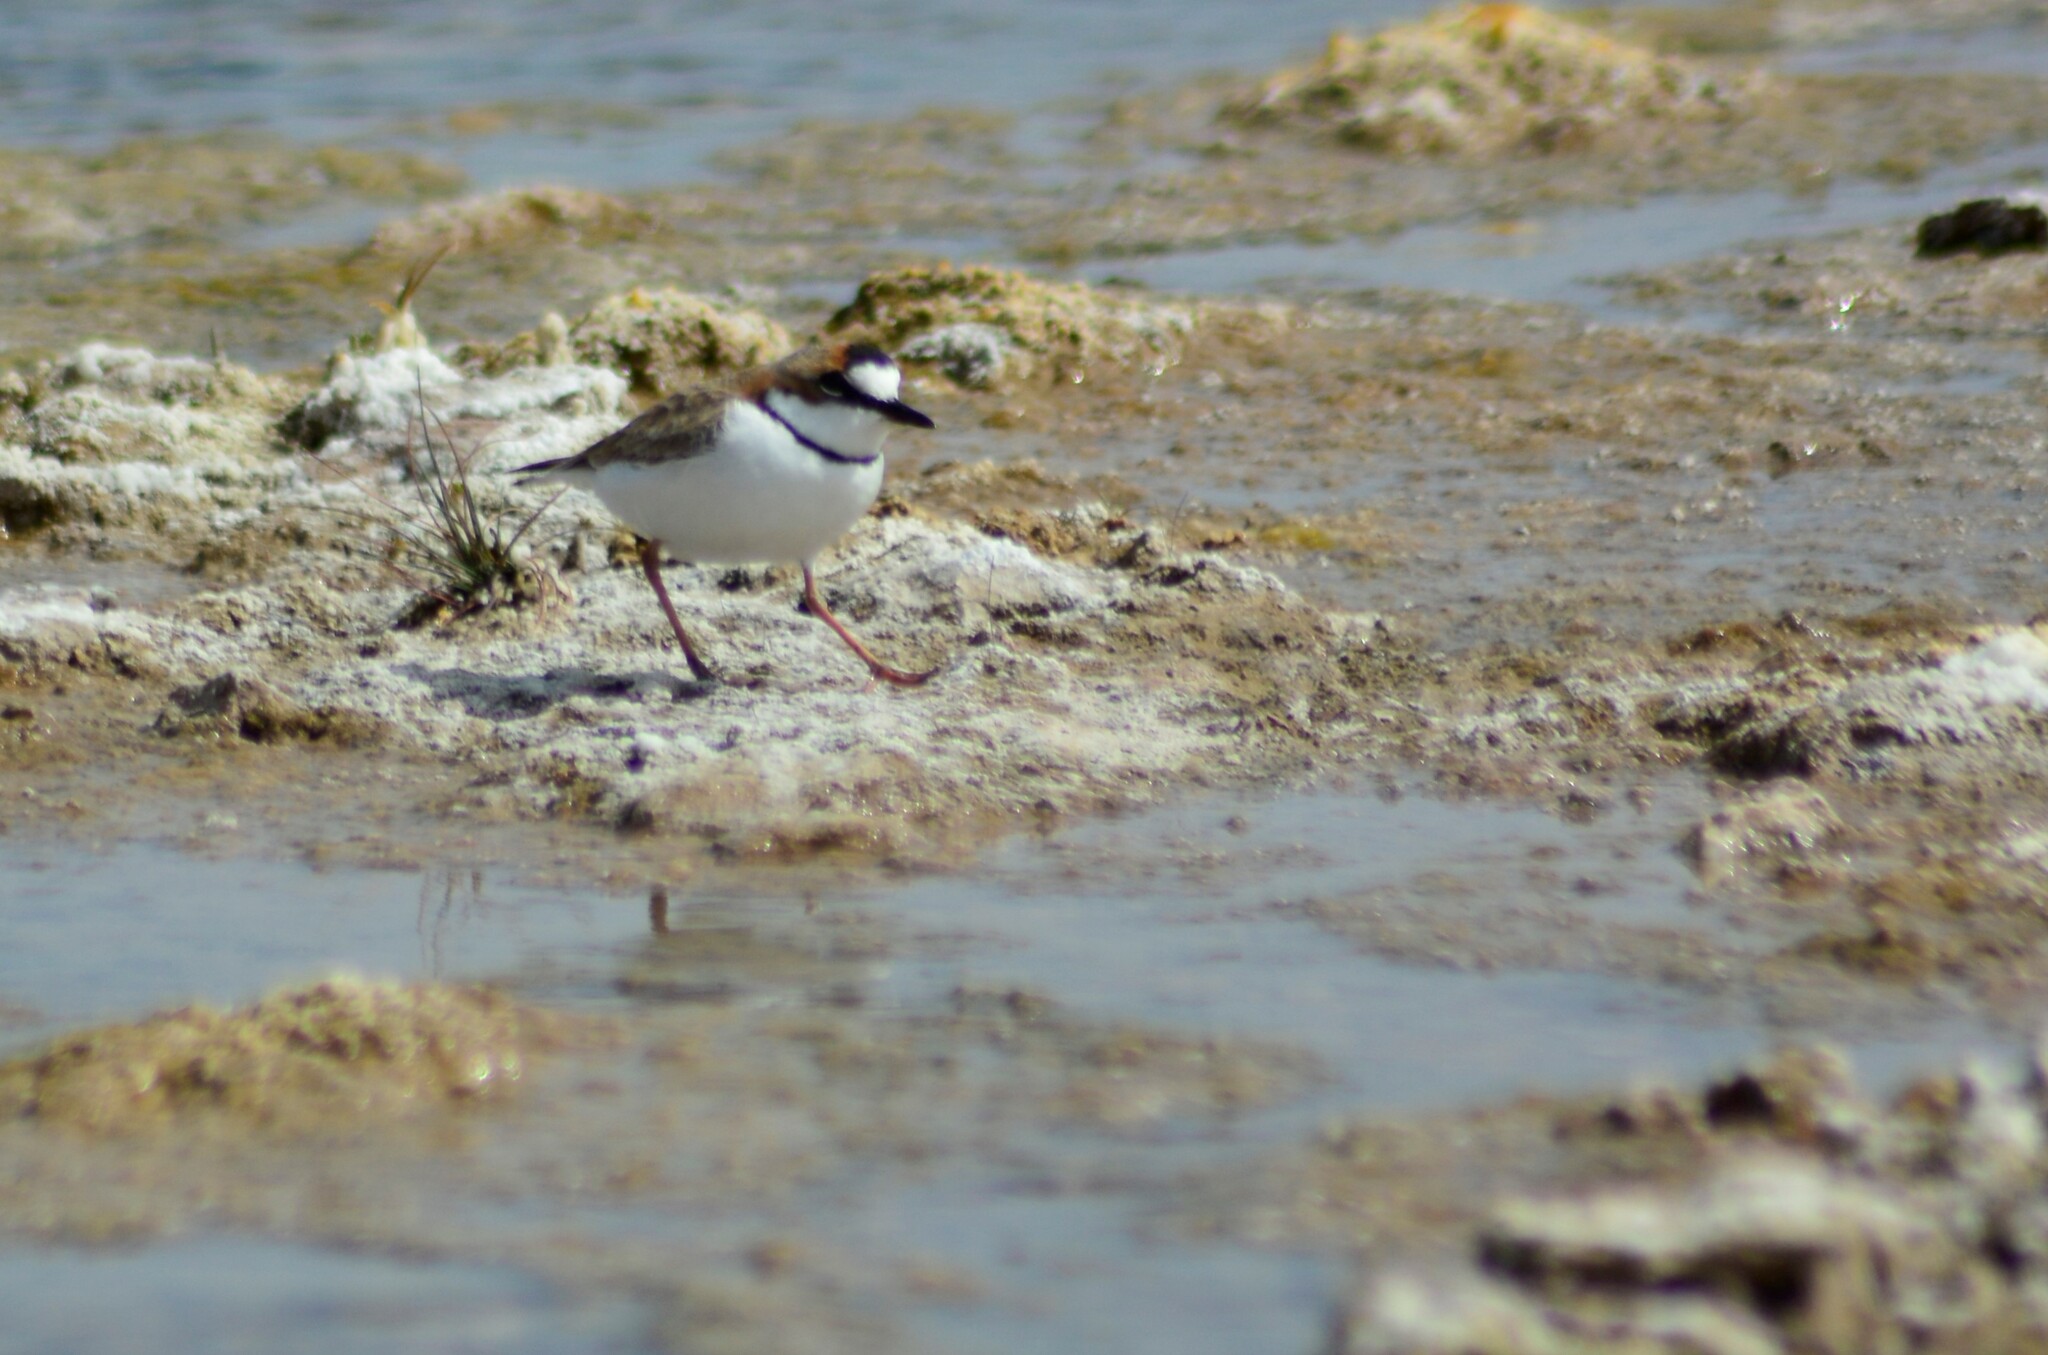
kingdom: Animalia
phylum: Chordata
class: Aves
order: Charadriiformes
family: Charadriidae
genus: Anarhynchus
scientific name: Anarhynchus
